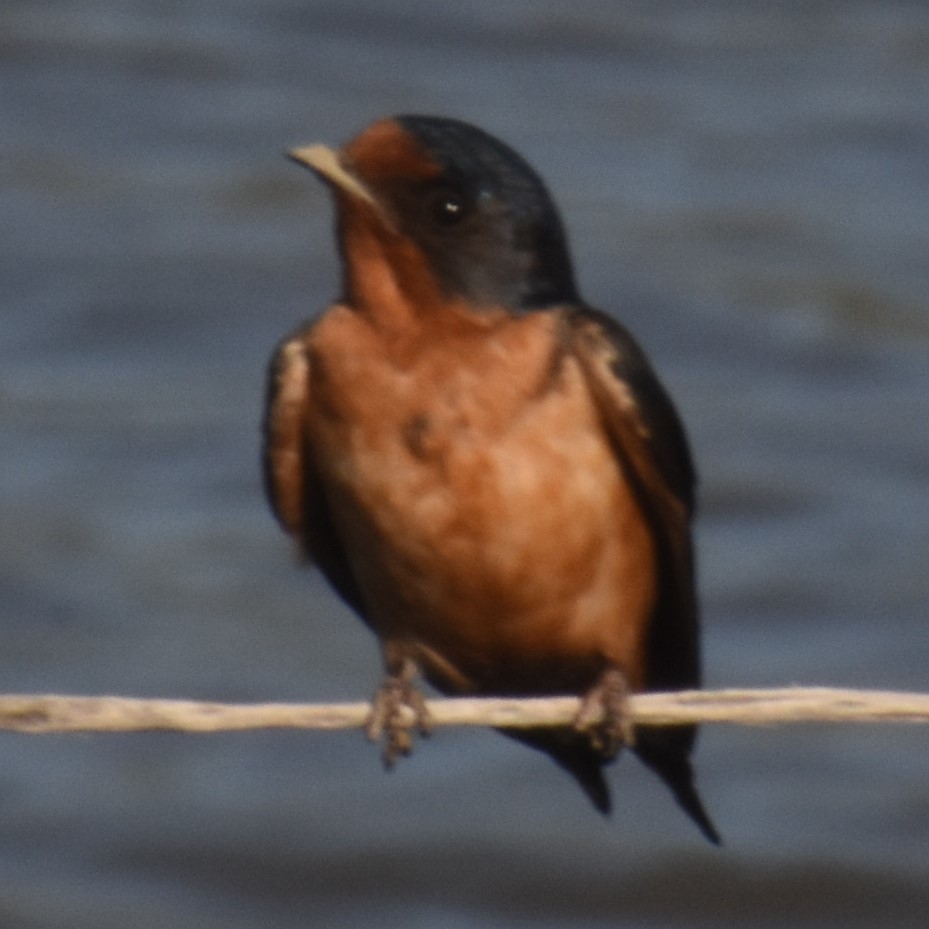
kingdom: Animalia
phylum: Chordata
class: Aves
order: Passeriformes
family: Hirundinidae
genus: Hirundo
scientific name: Hirundo rustica
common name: Barn swallow
